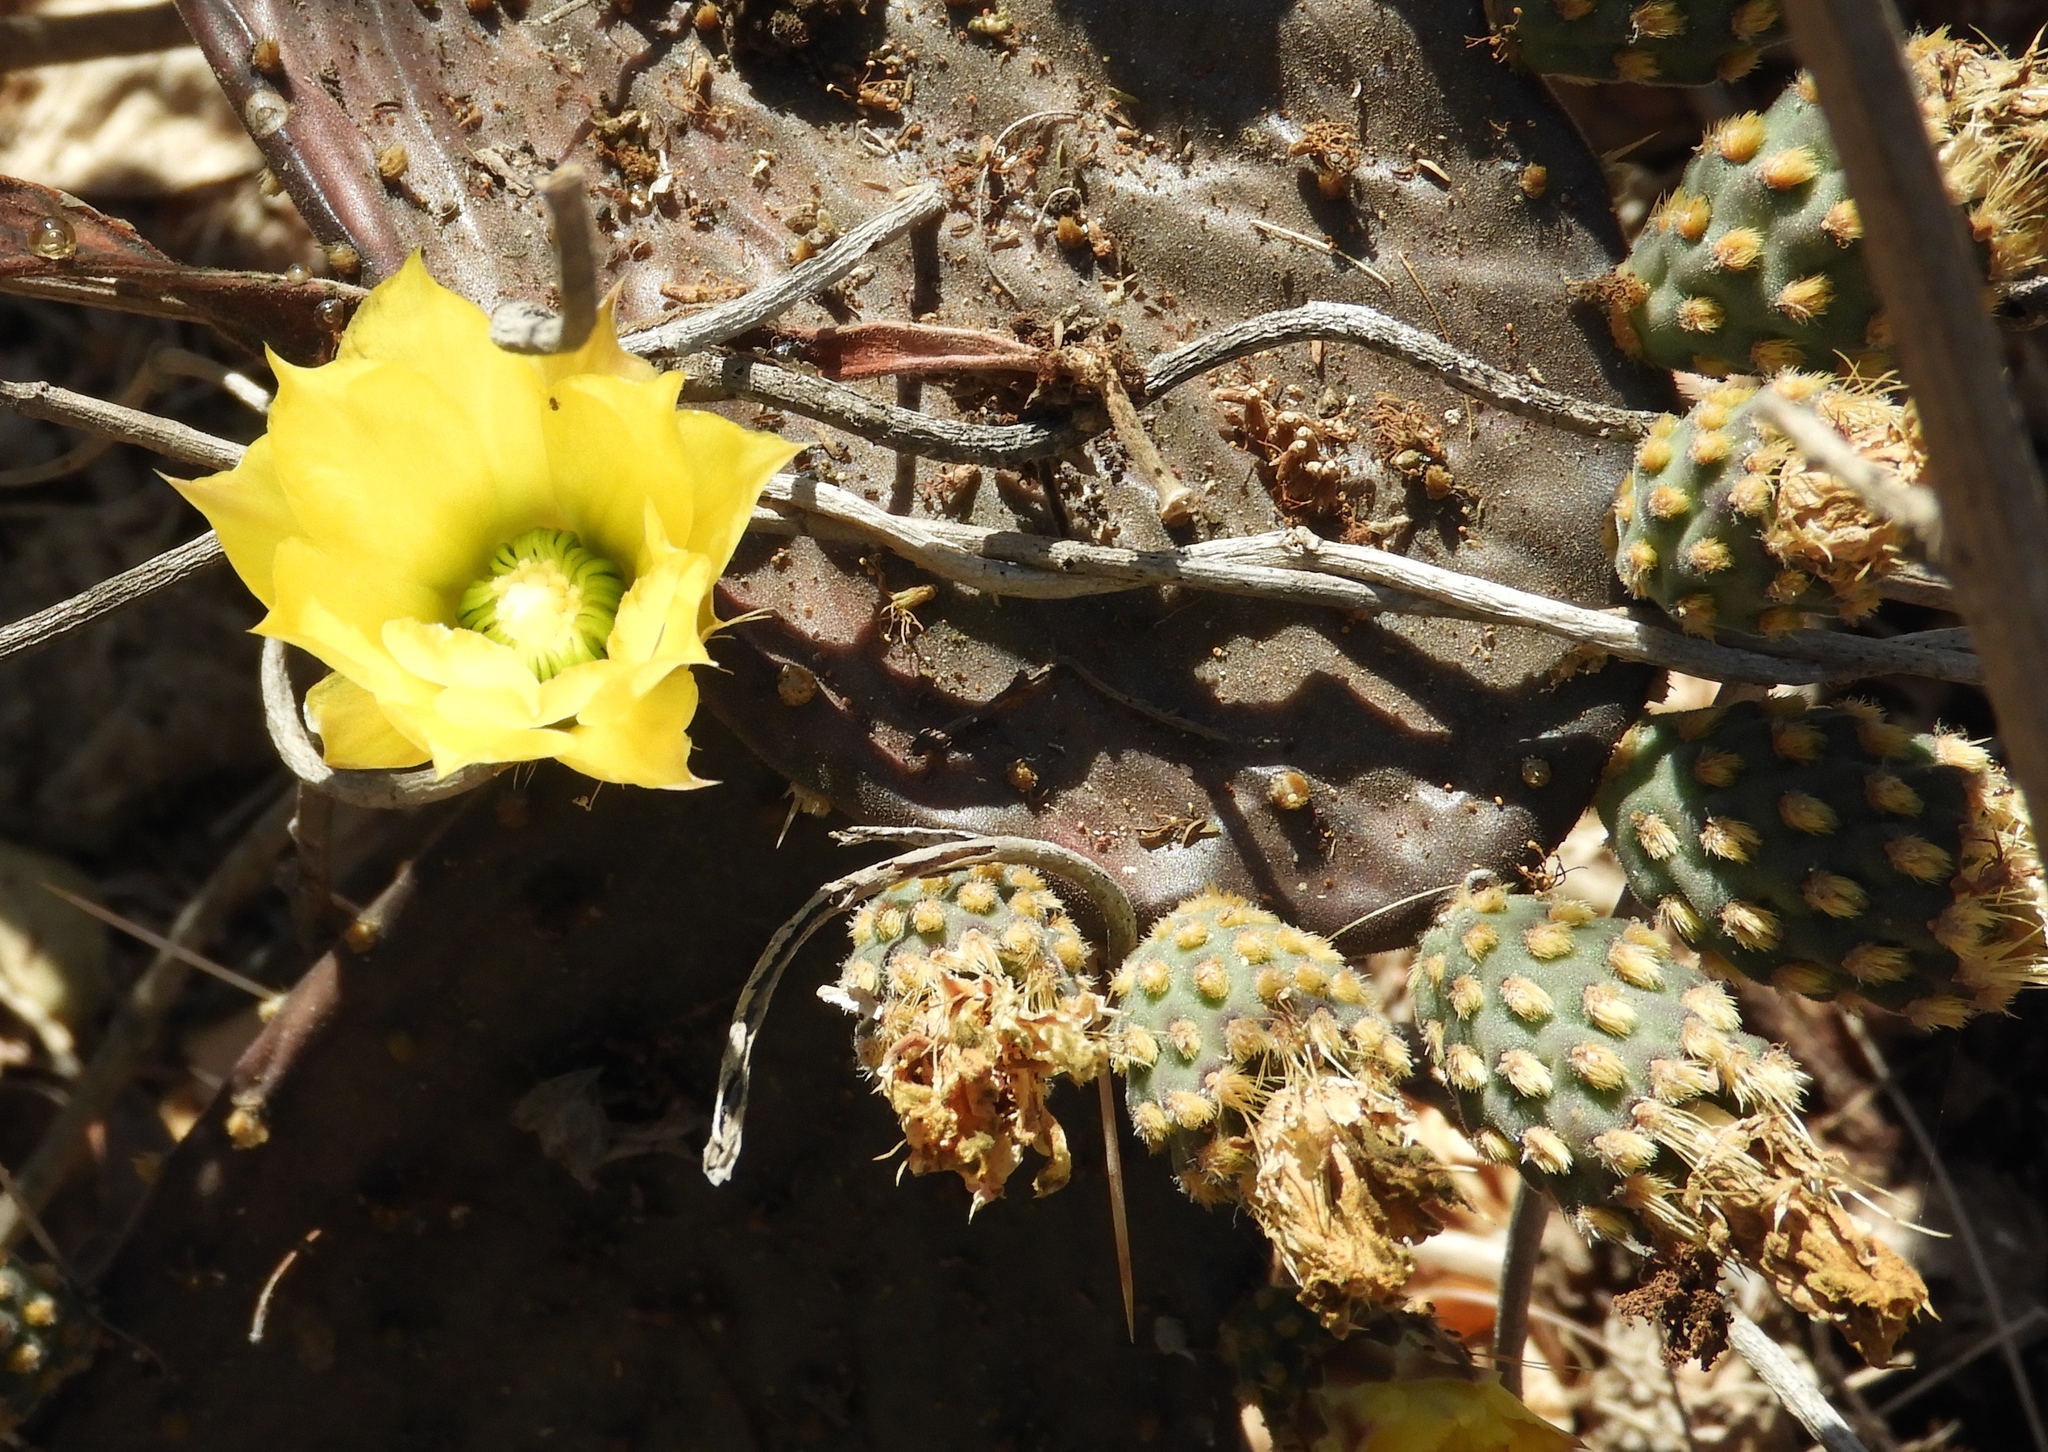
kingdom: Plantae
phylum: Tracheophyta
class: Magnoliopsida
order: Caryophyllales
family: Cactaceae
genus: Opuntia
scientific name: Opuntia decumbens
